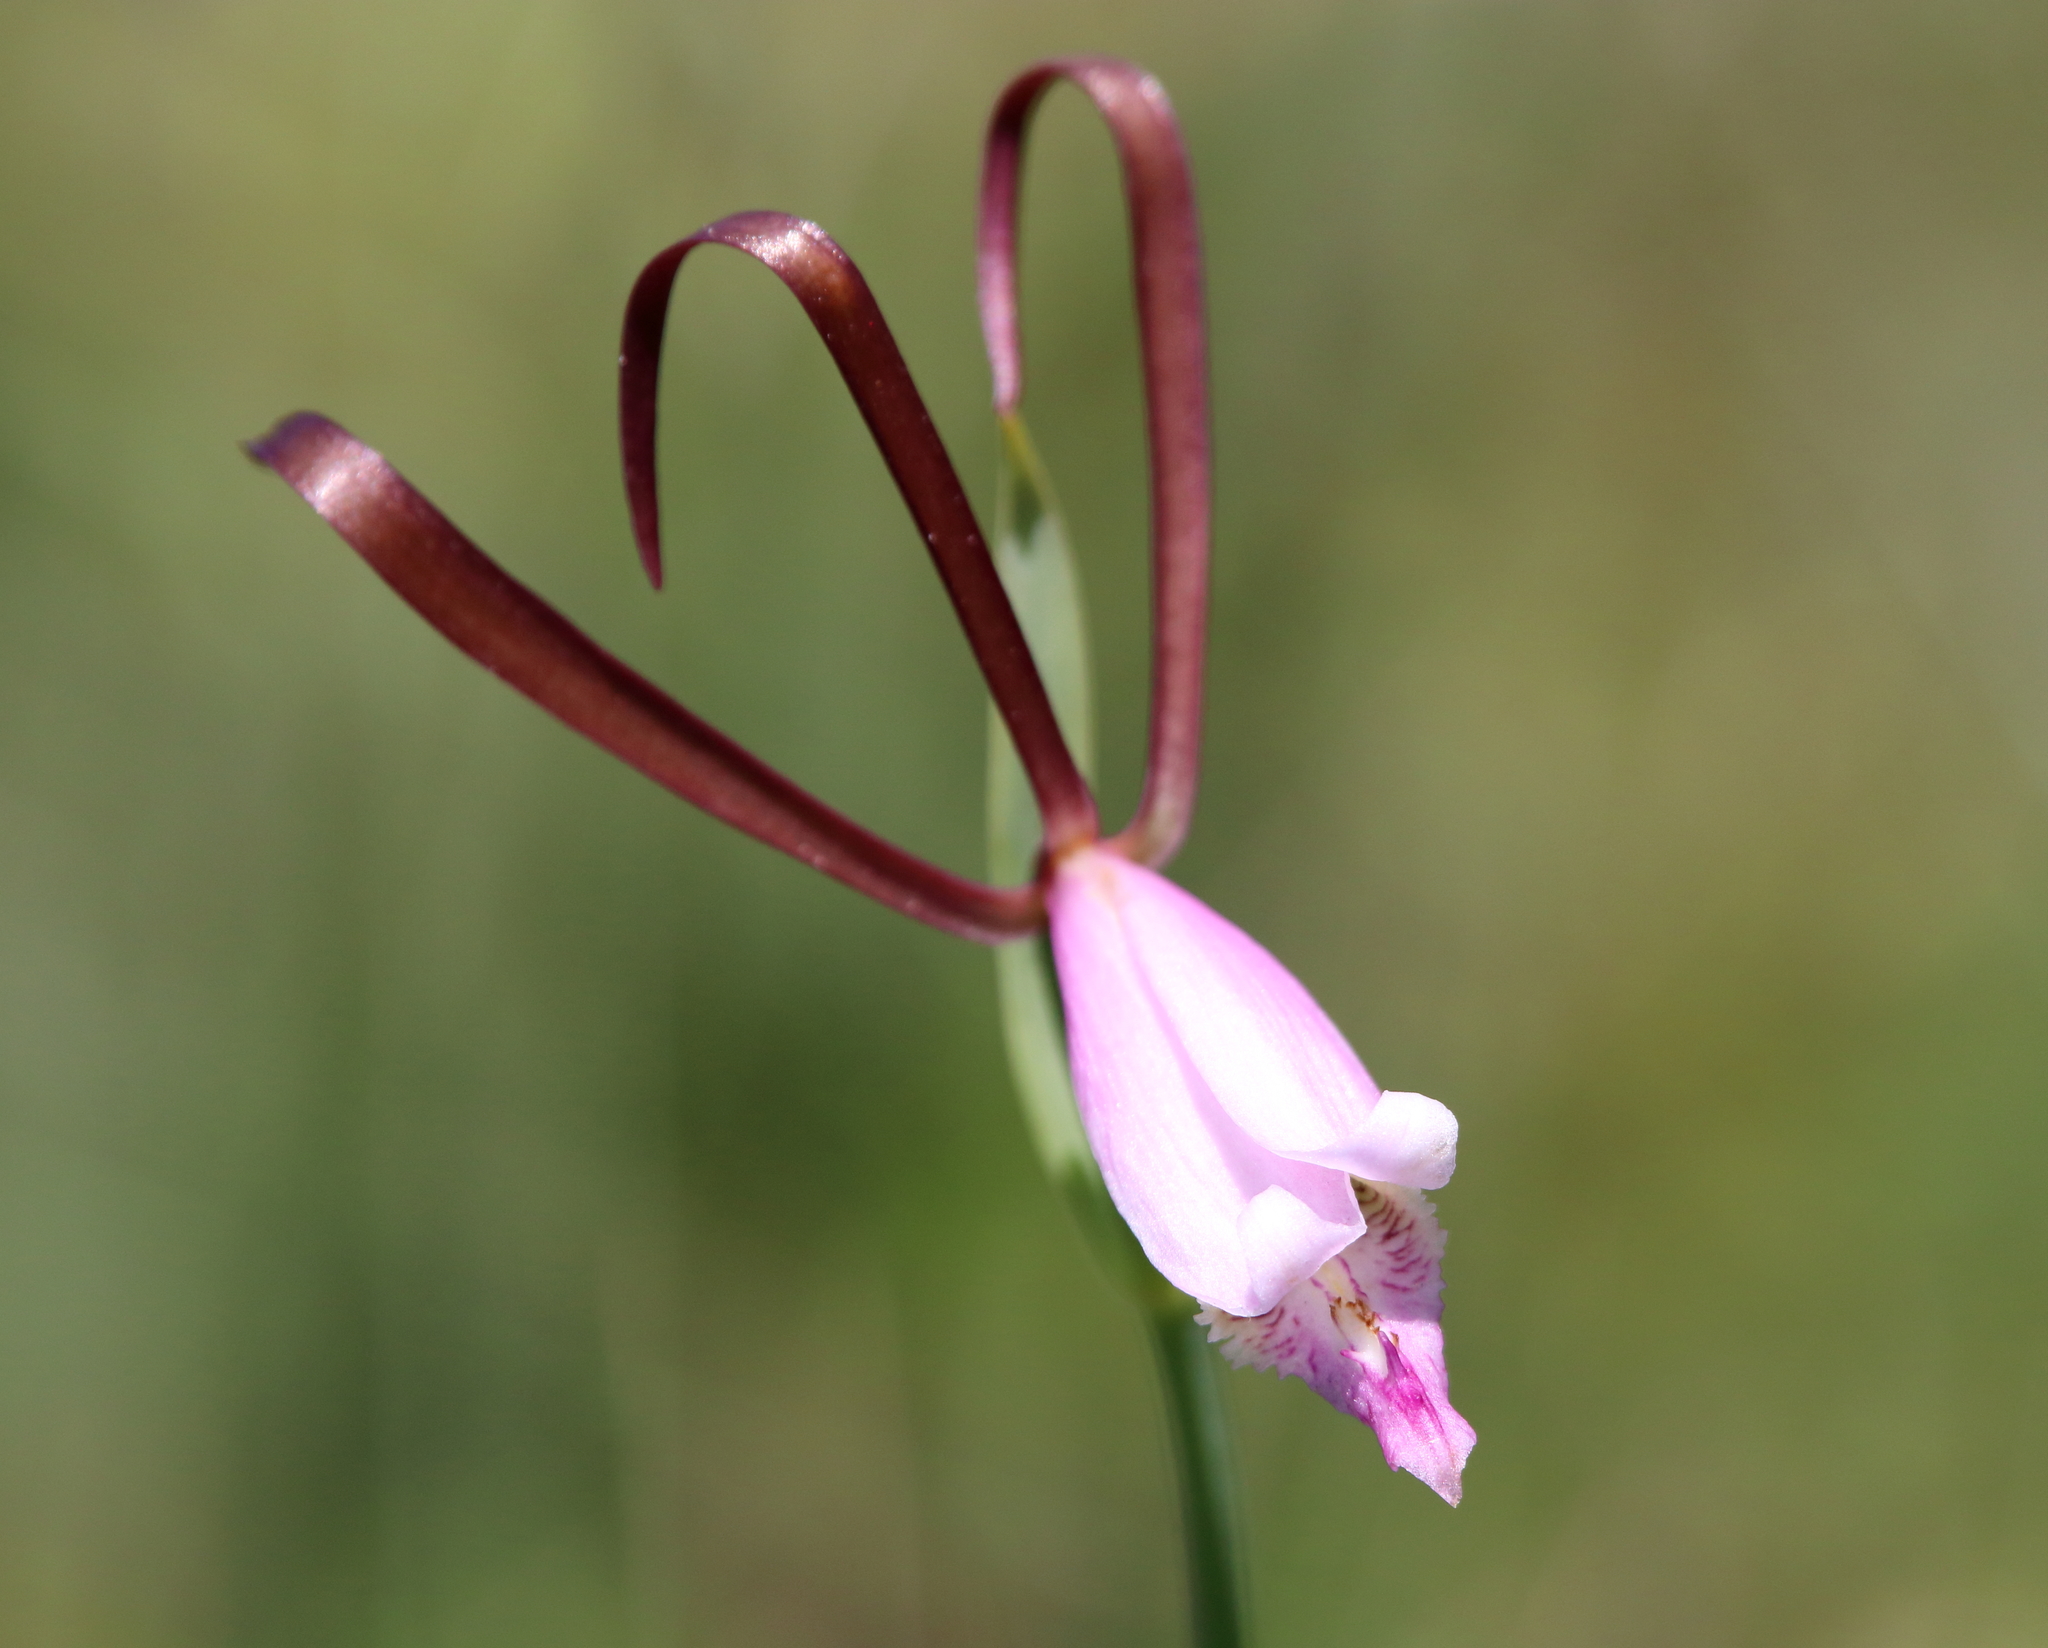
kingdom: Plantae
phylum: Tracheophyta
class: Liliopsida
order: Asparagales
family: Orchidaceae
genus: Cleistesiopsis
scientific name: Cleistesiopsis oricamporum
